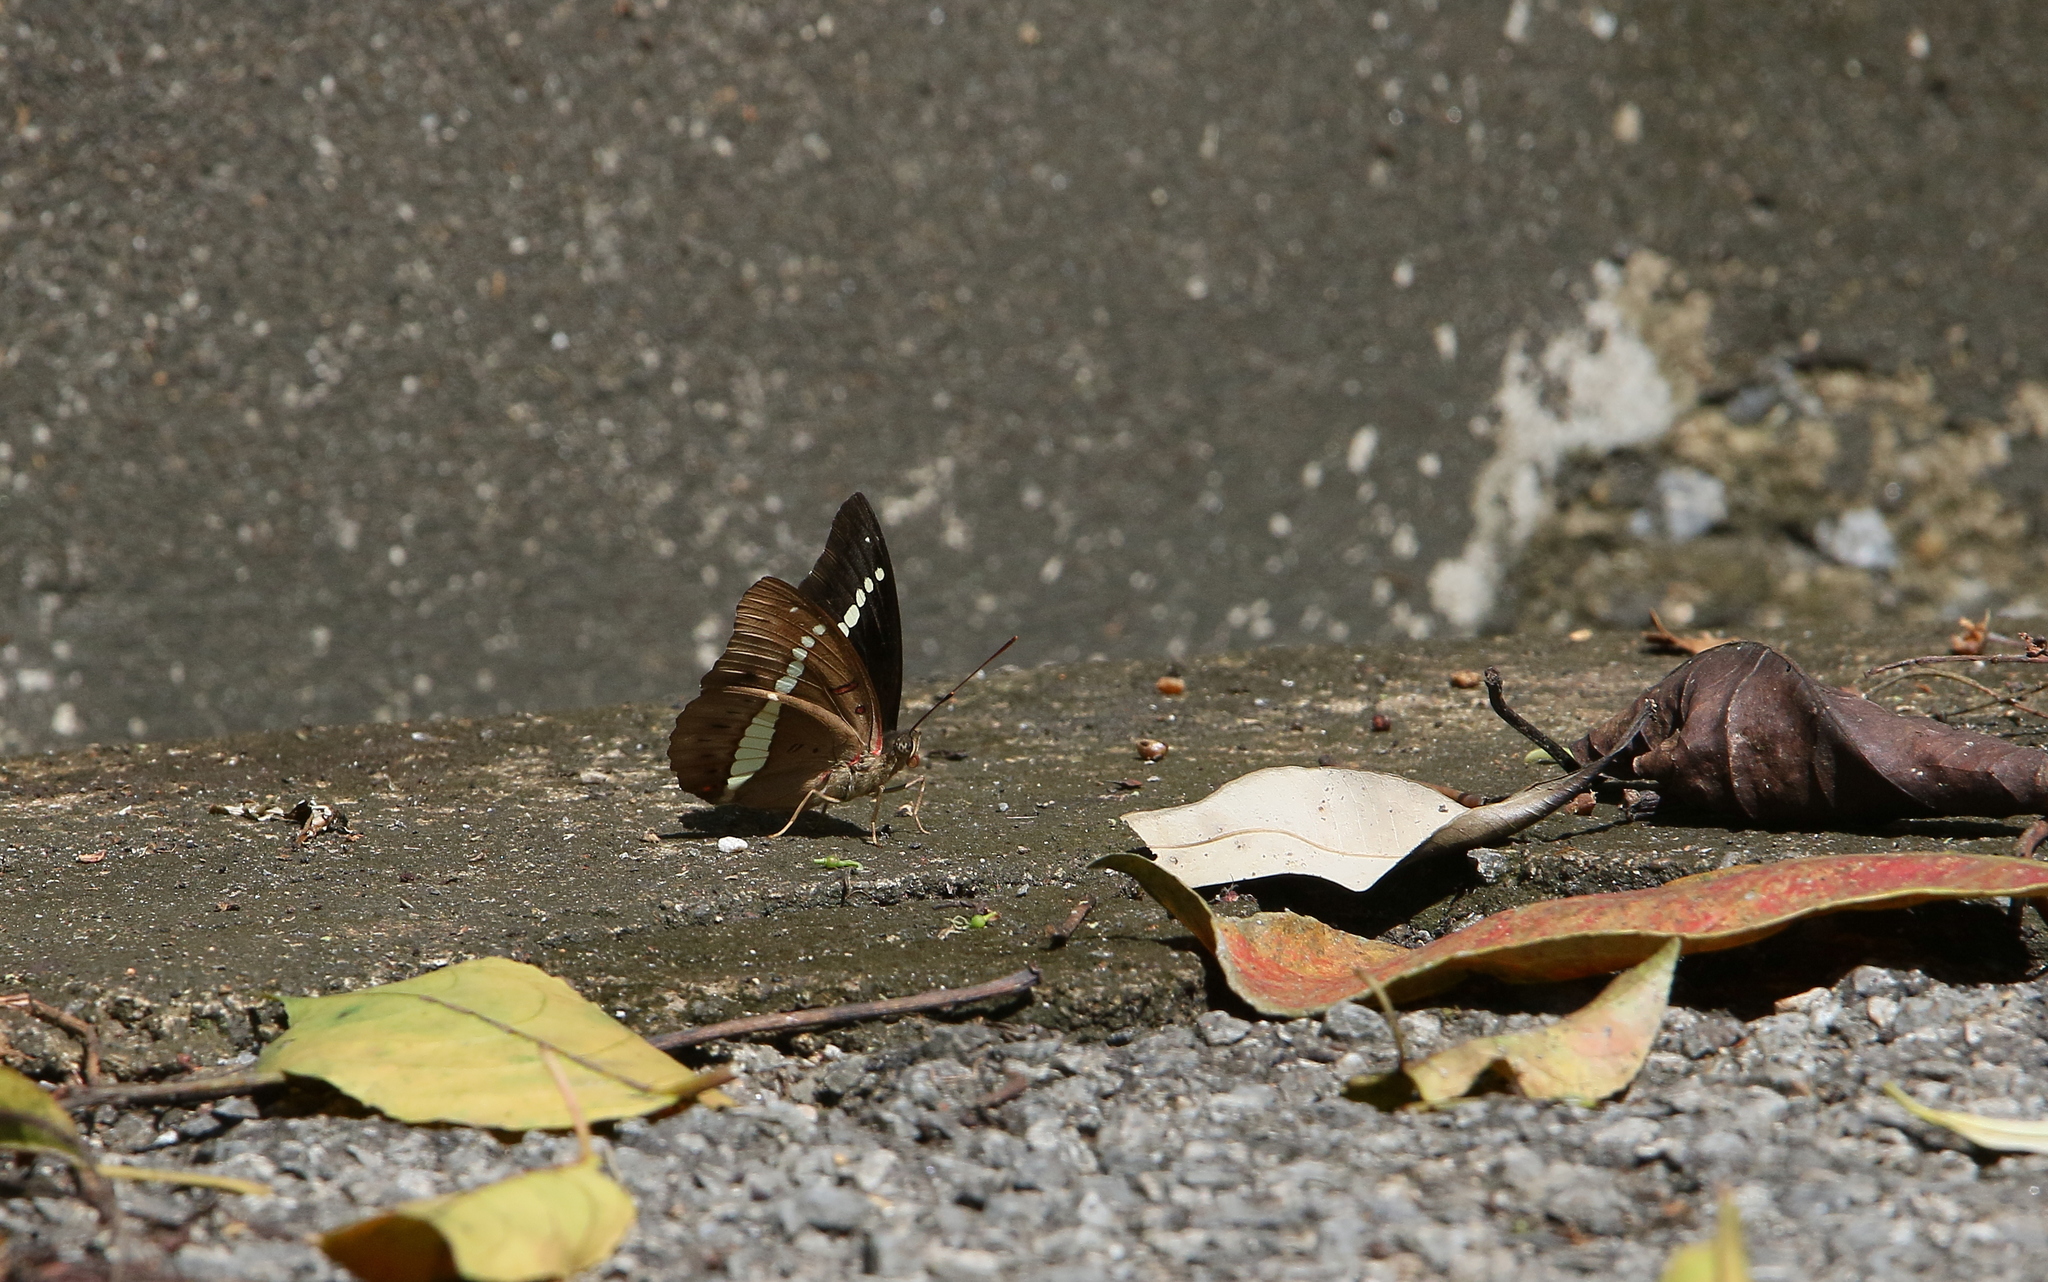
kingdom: Animalia
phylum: Arthropoda
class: Insecta
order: Lepidoptera
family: Nymphalidae
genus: Euthalia
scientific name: Euthalia recta
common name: Redtail marquis
